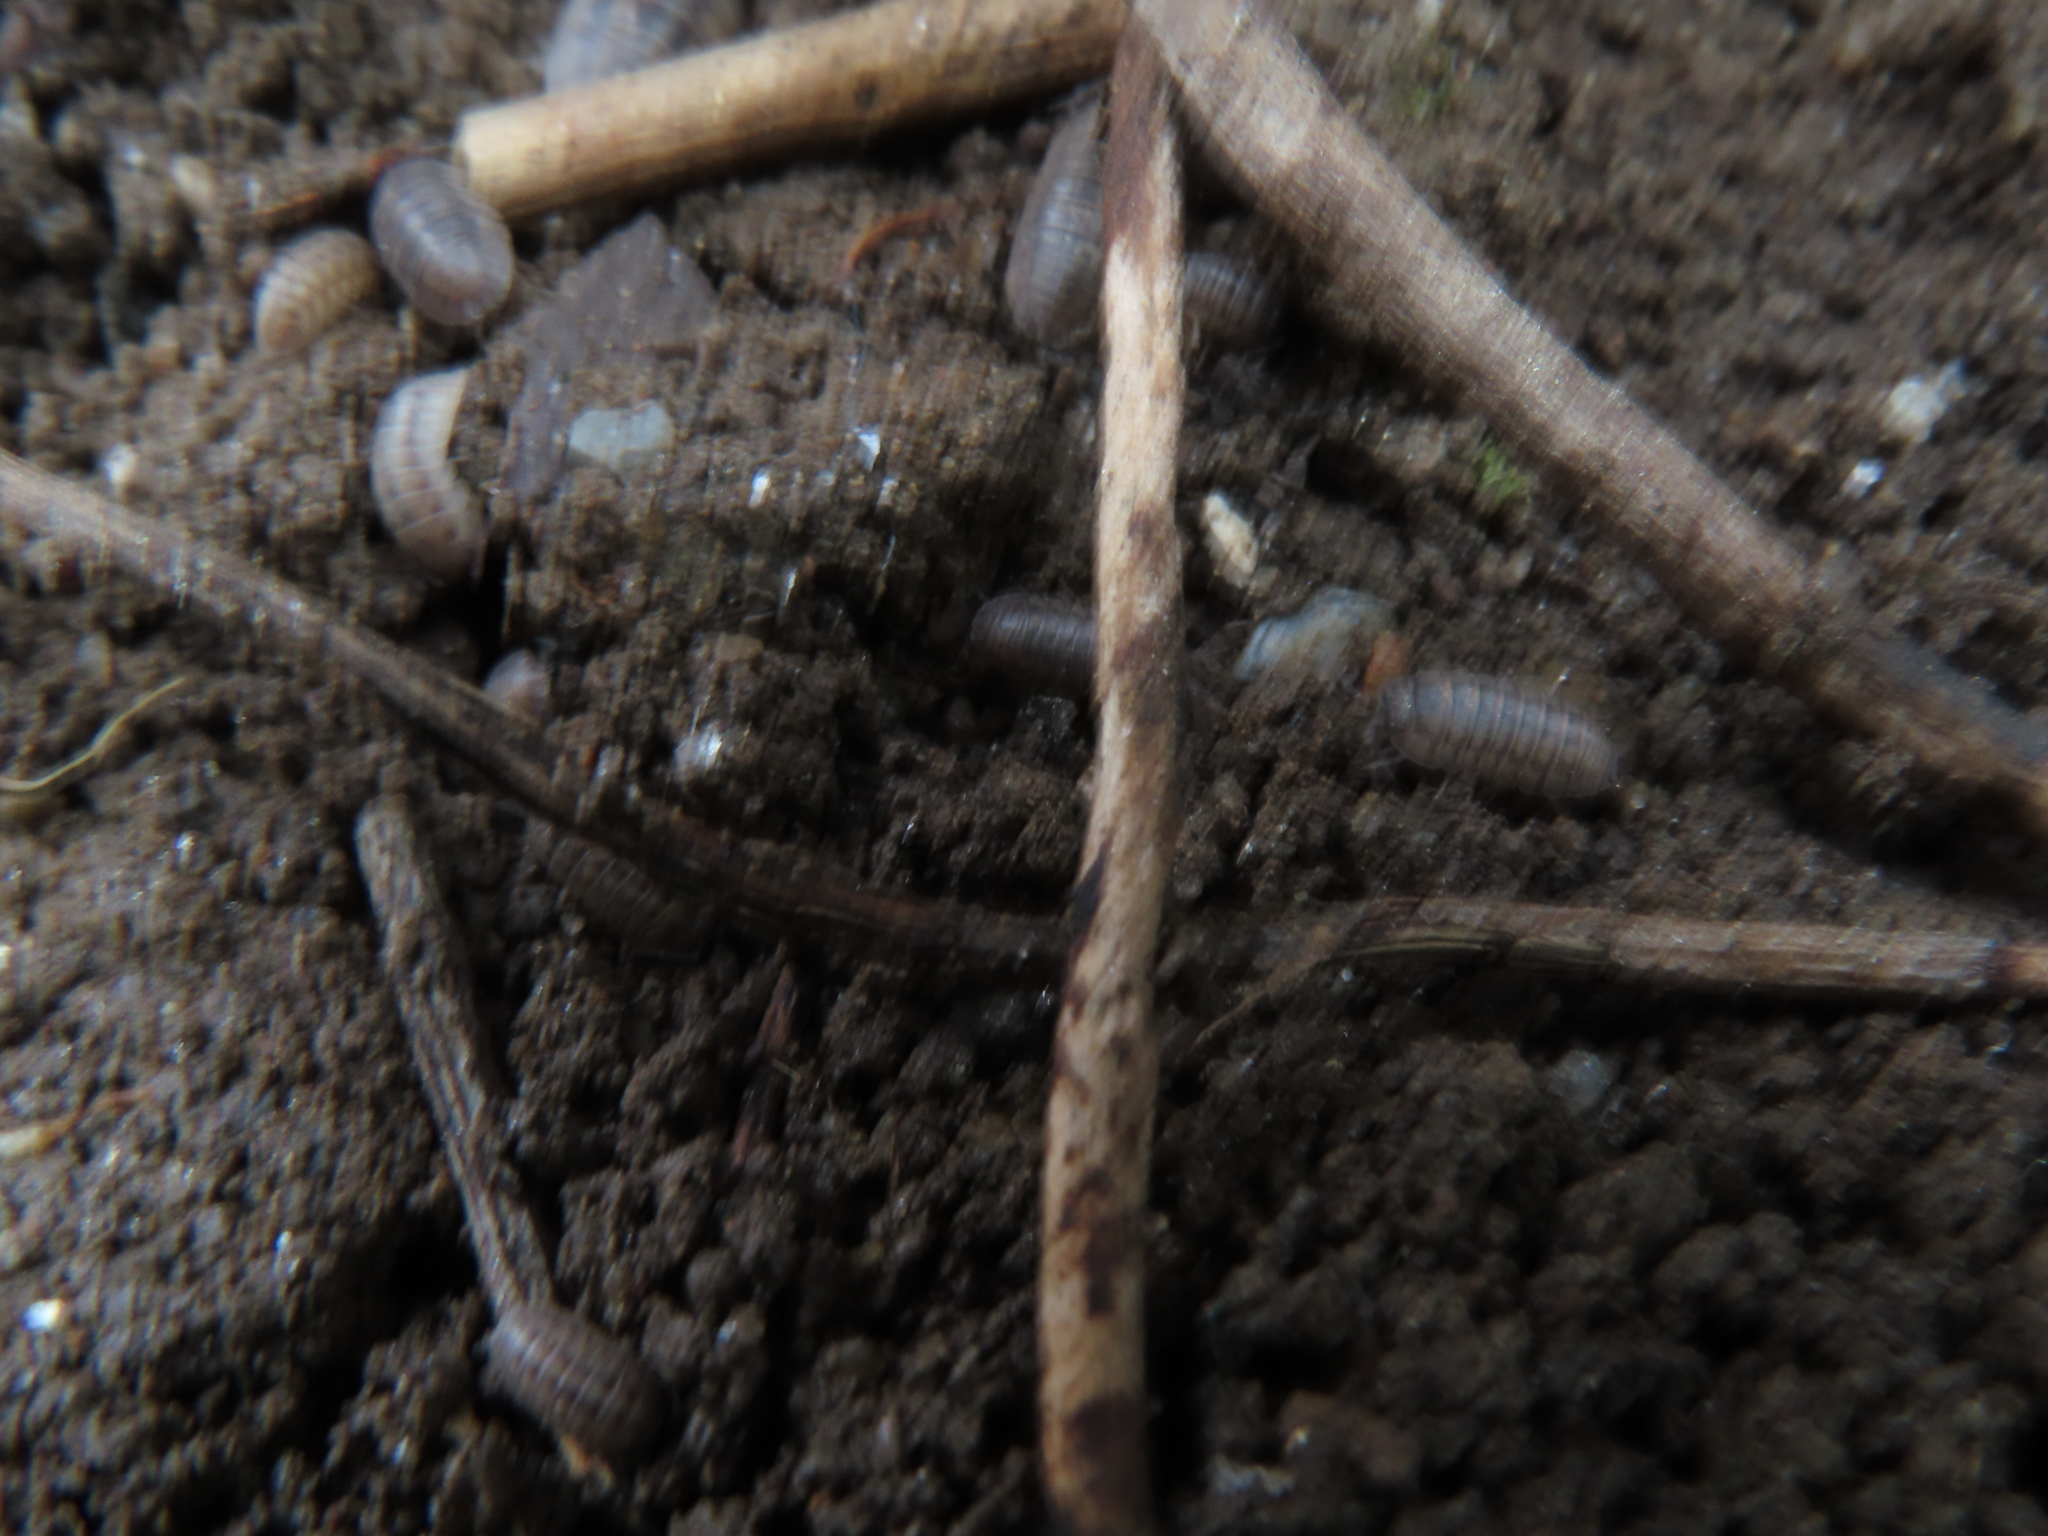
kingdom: Animalia
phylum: Arthropoda
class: Malacostraca
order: Isopoda
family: Armadillidiidae
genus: Armadillidium
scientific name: Armadillidium nasatum
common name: Isopod
